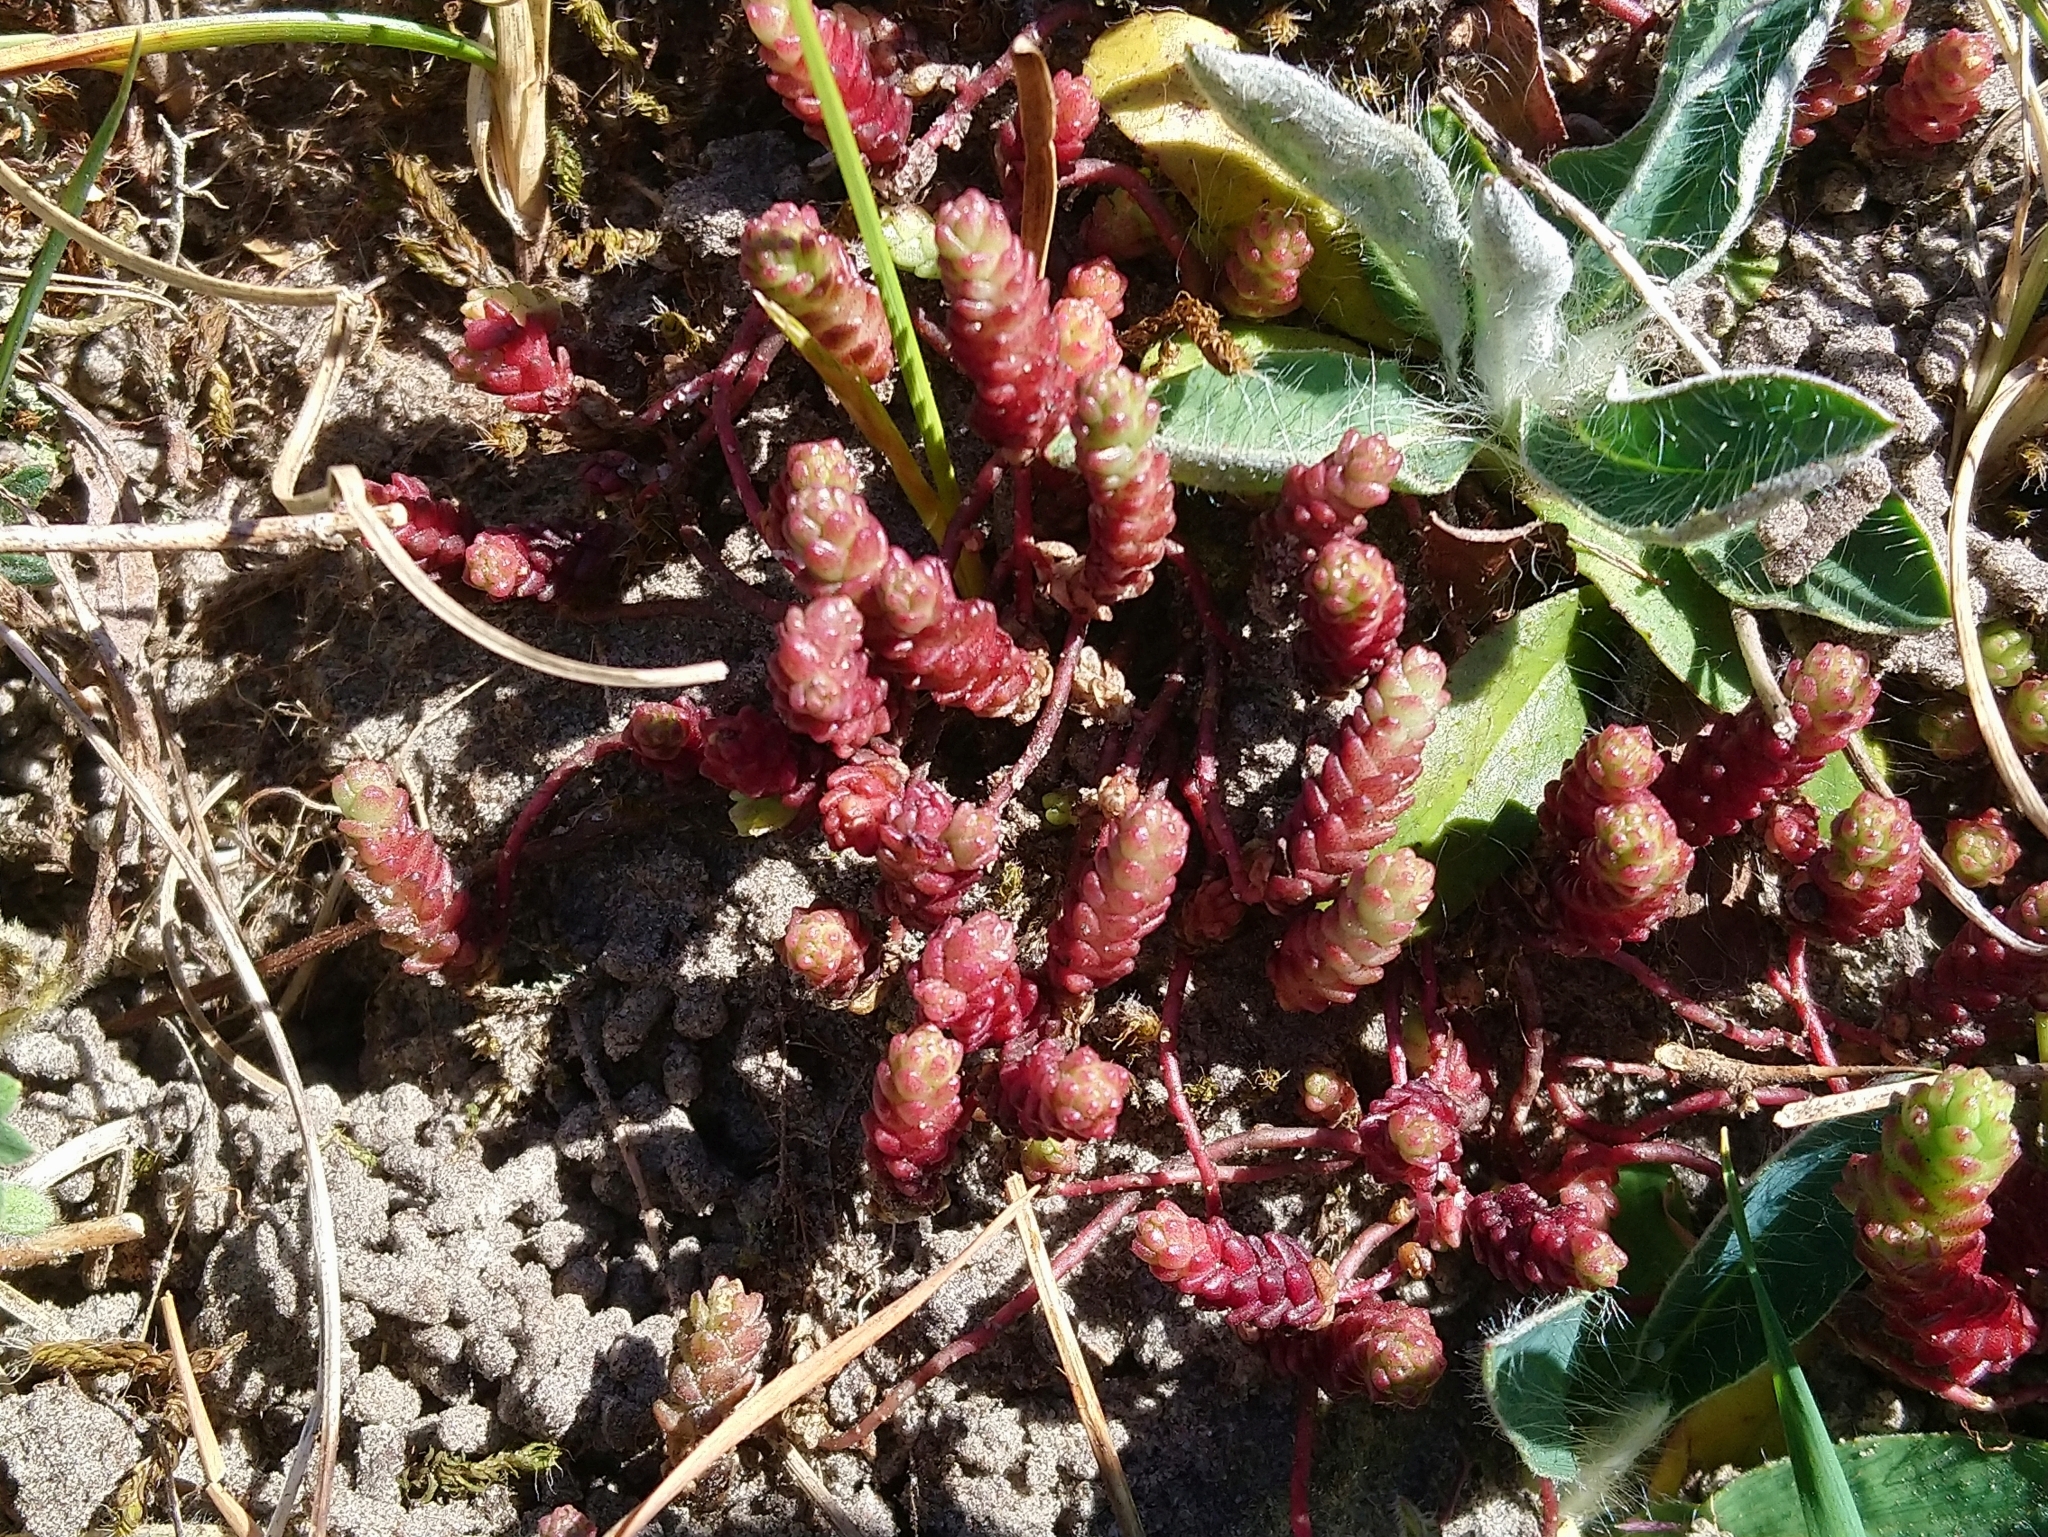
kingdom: Plantae
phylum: Tracheophyta
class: Magnoliopsida
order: Saxifragales
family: Crassulaceae
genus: Sedum
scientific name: Sedum acre
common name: Biting stonecrop
